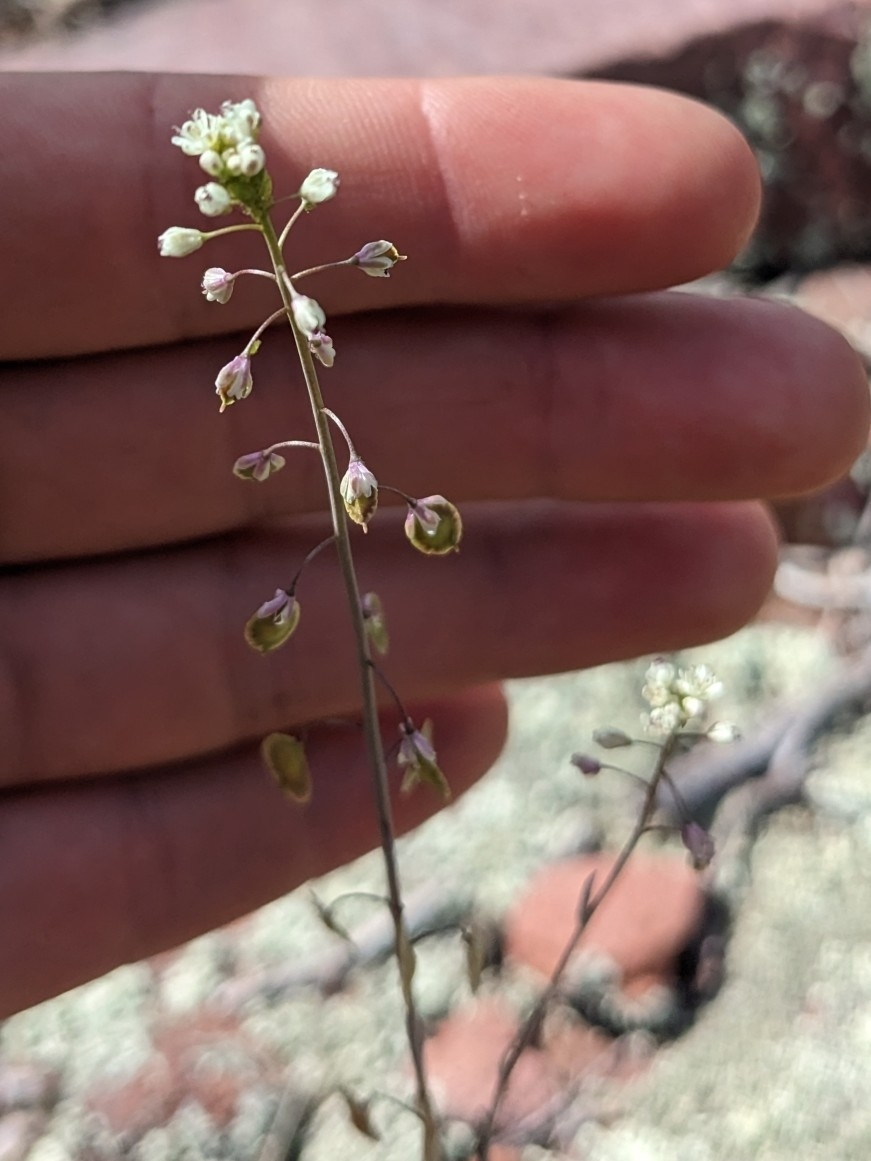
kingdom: Plantae
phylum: Tracheophyta
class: Magnoliopsida
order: Brassicales
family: Brassicaceae
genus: Thysanocarpus
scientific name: Thysanocarpus curvipes
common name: Sand fringepod
